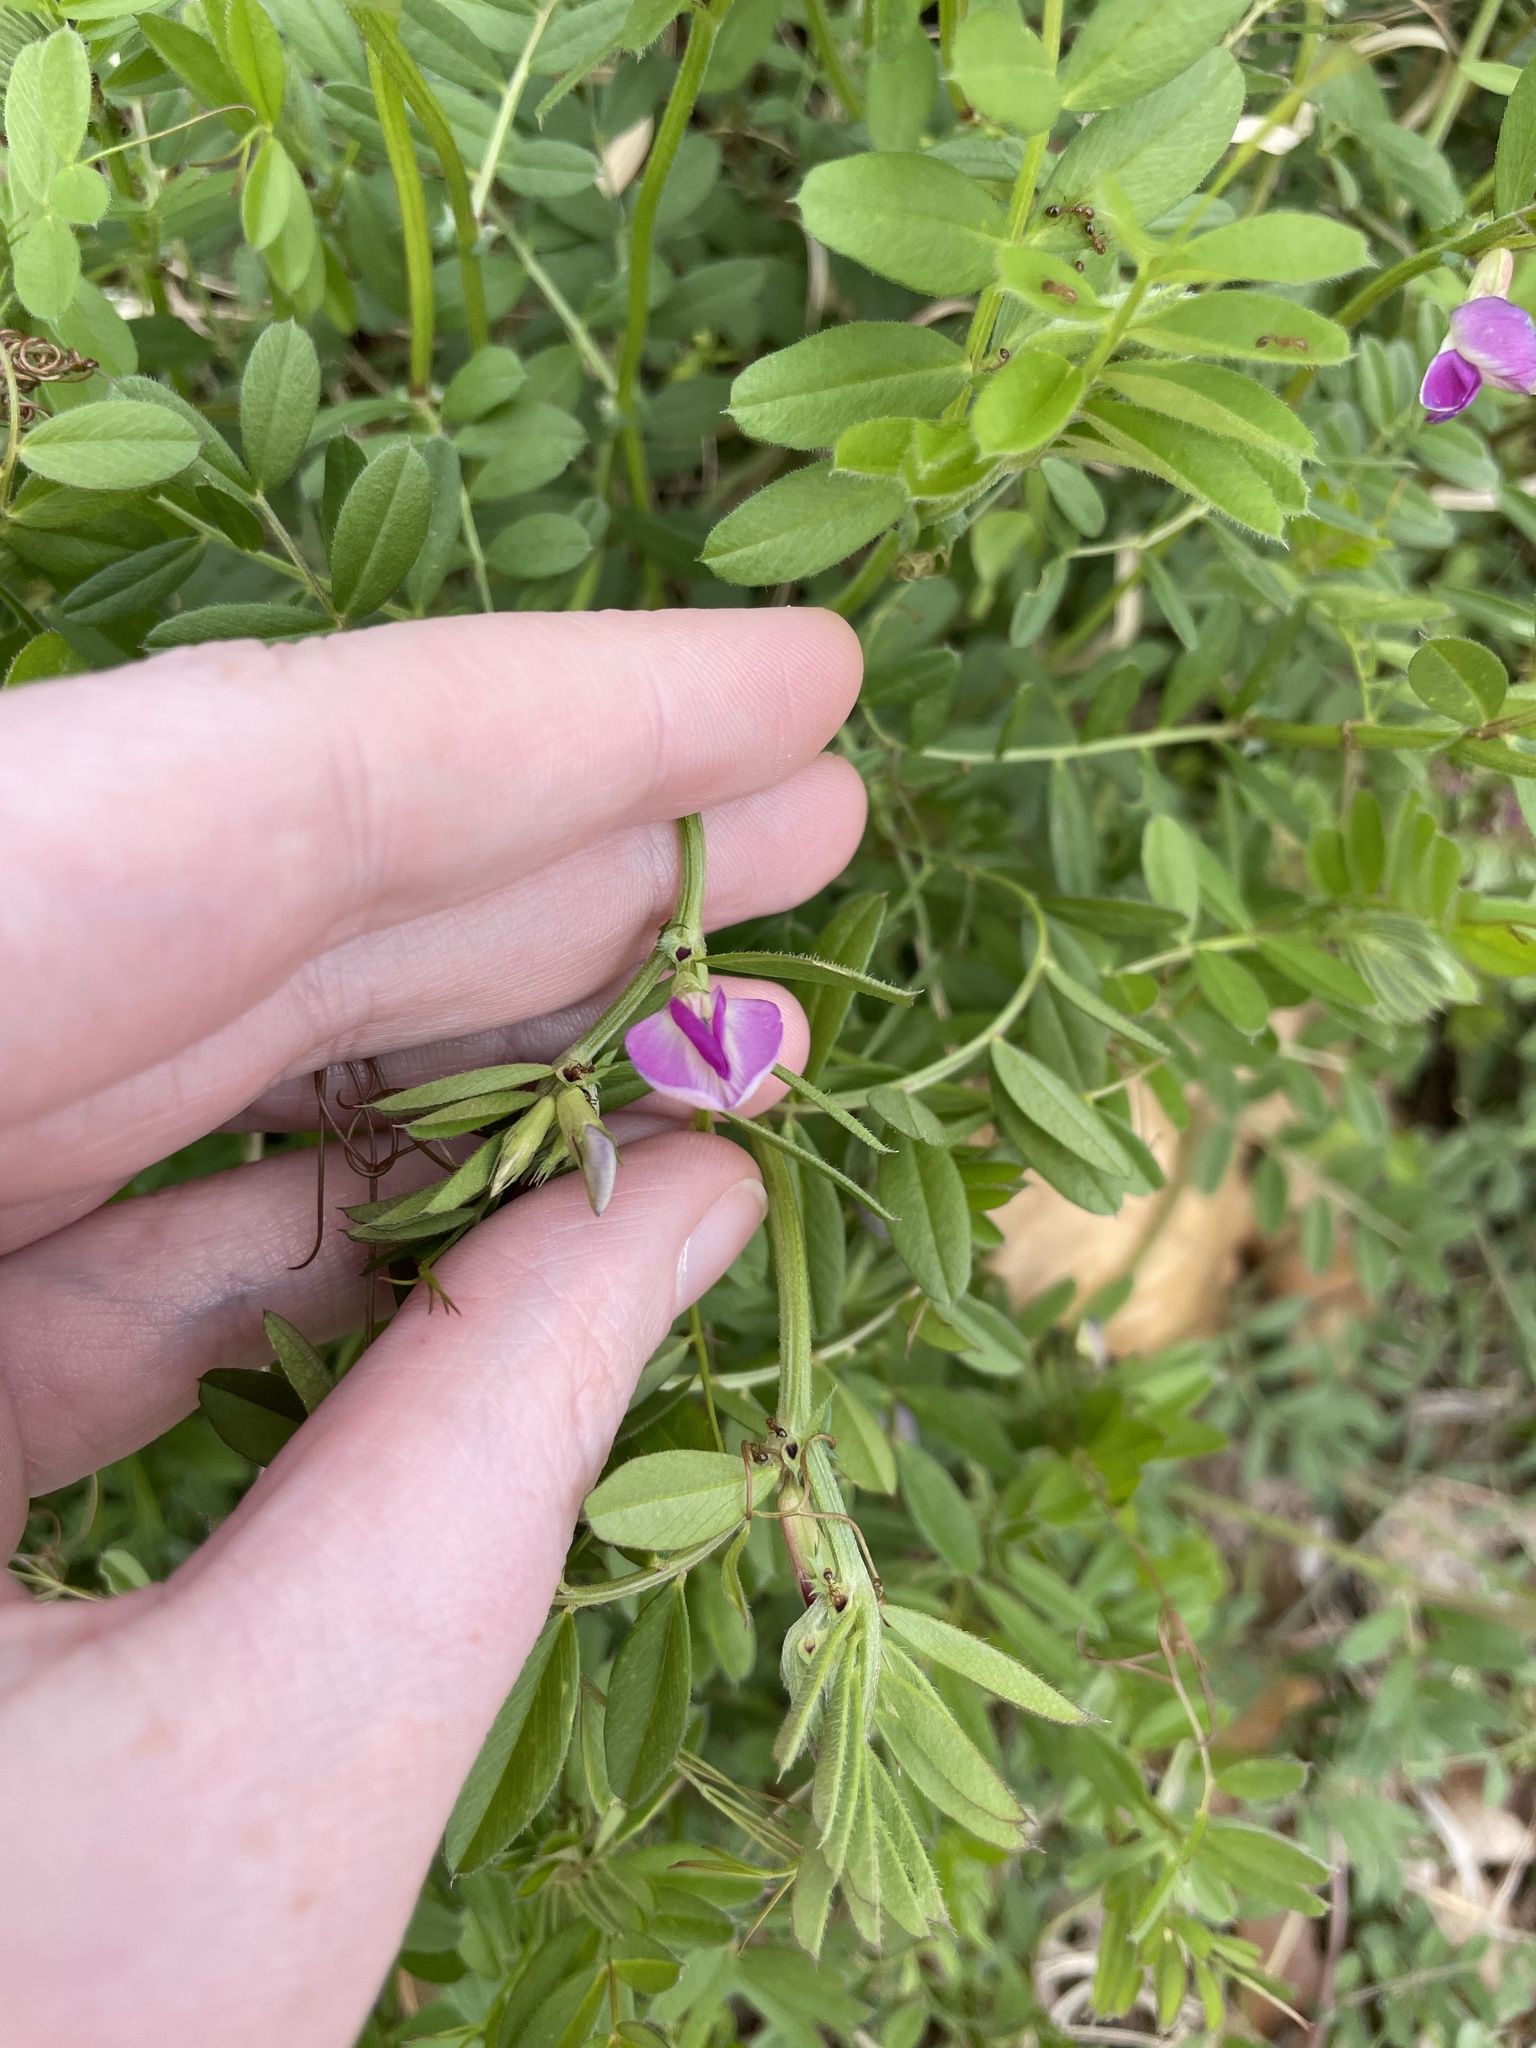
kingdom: Plantae
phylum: Tracheophyta
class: Magnoliopsida
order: Fabales
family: Fabaceae
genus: Vicia
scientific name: Vicia sativa
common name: Garden vetch
